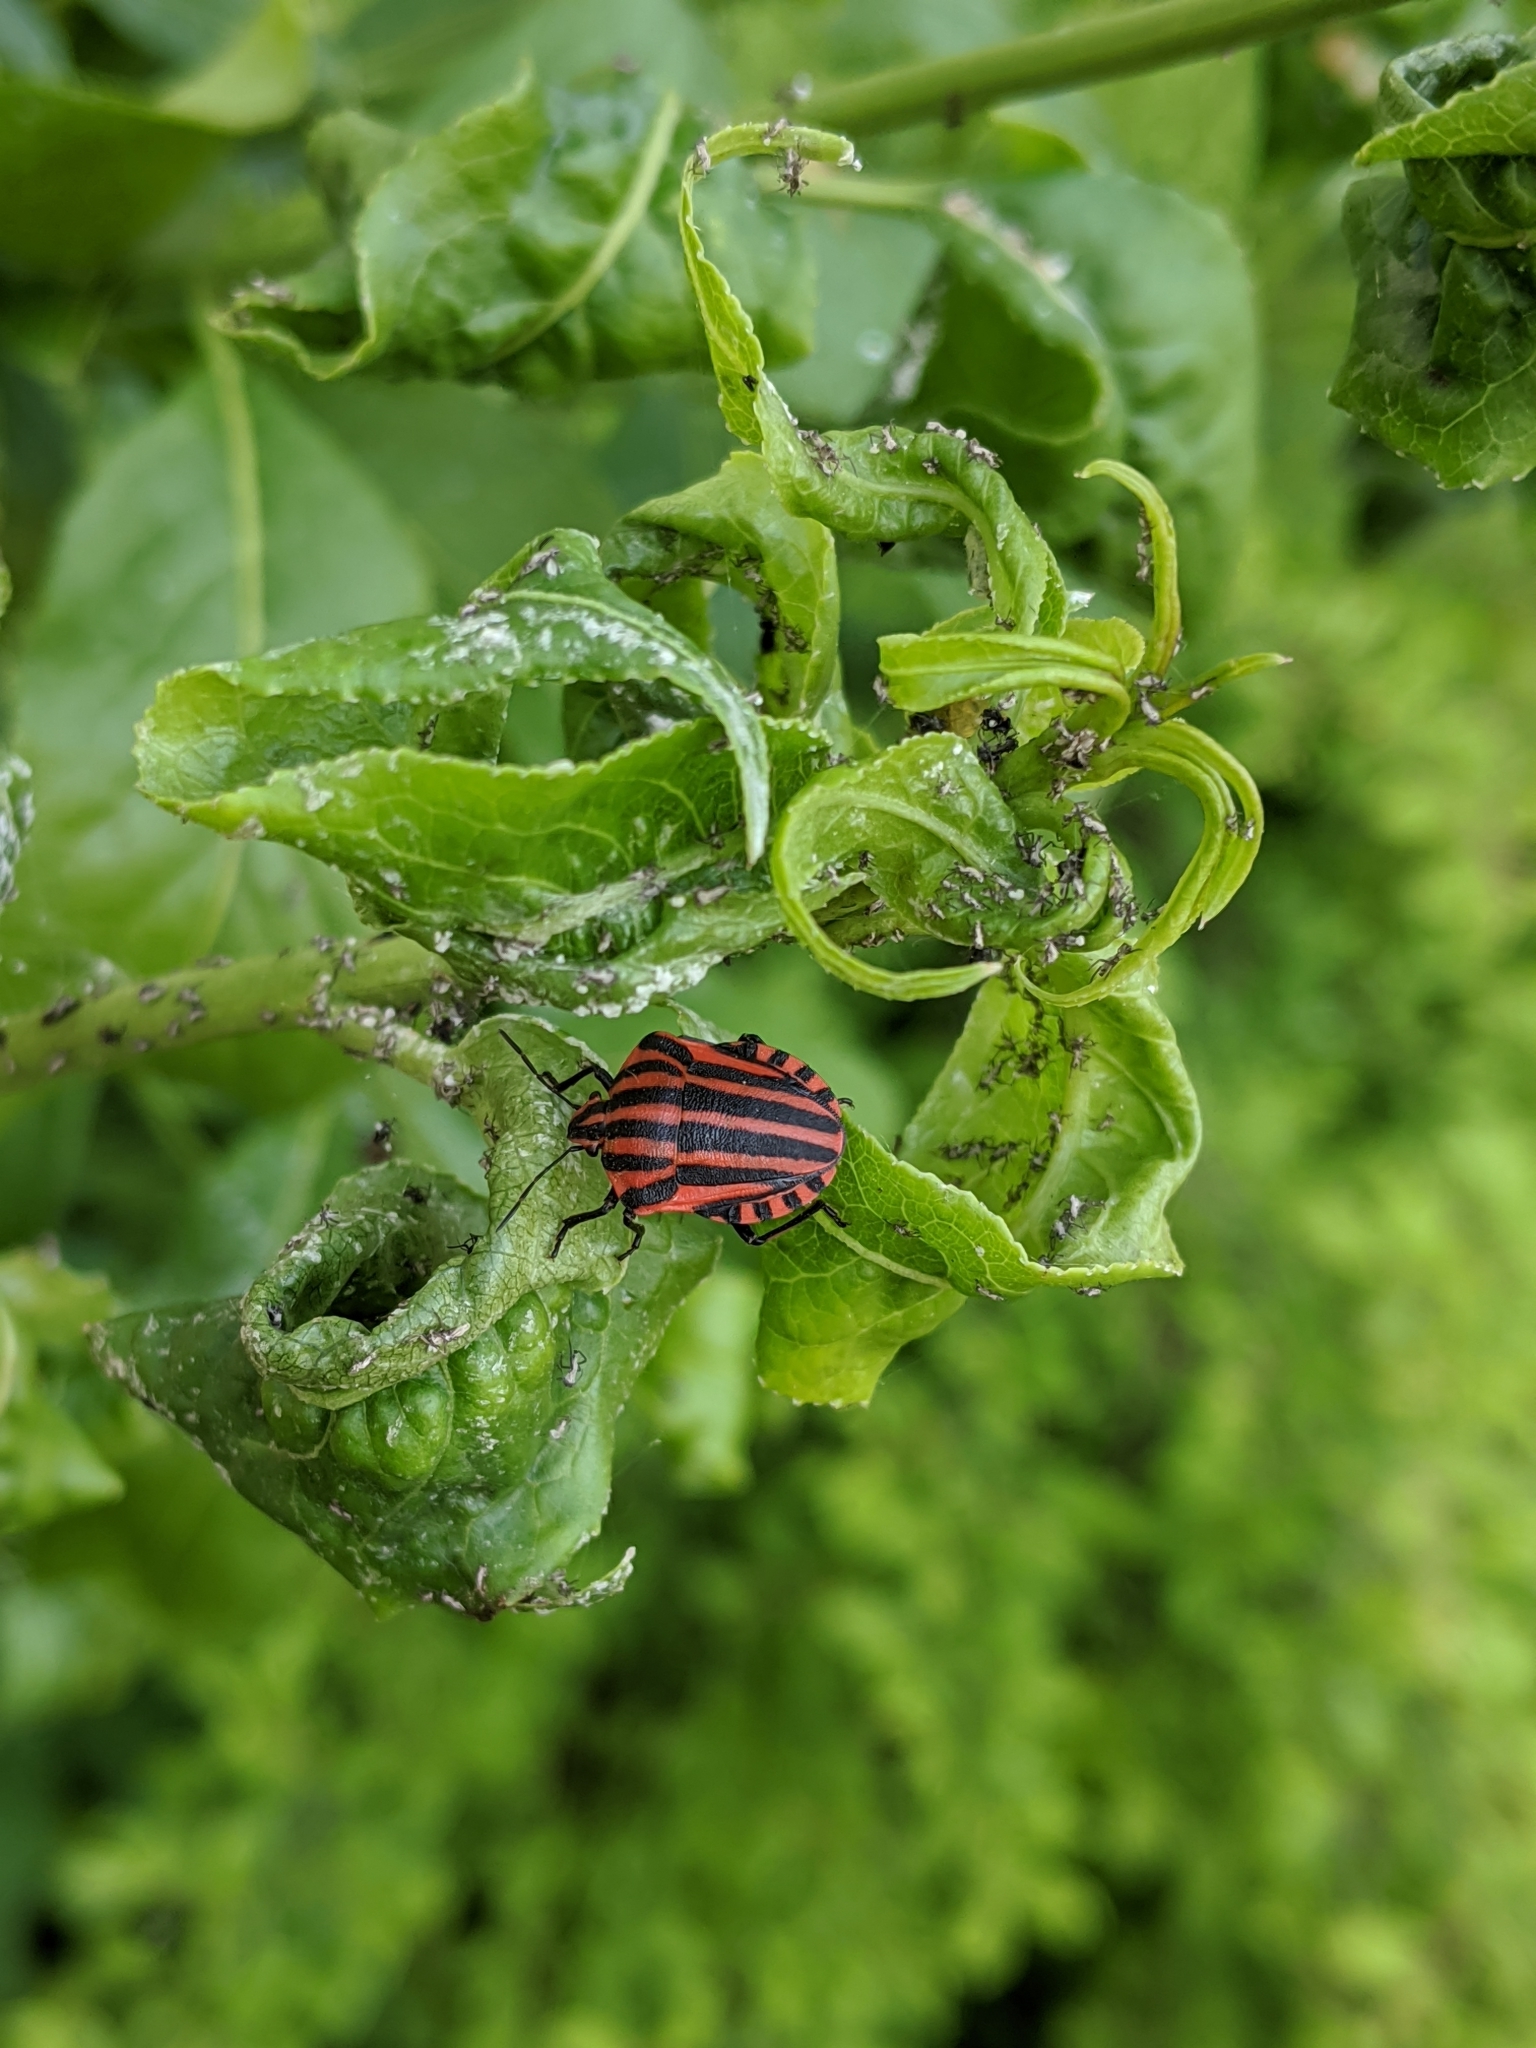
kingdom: Animalia
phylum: Arthropoda
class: Insecta
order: Hemiptera
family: Pentatomidae
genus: Graphosoma
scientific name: Graphosoma italicum
